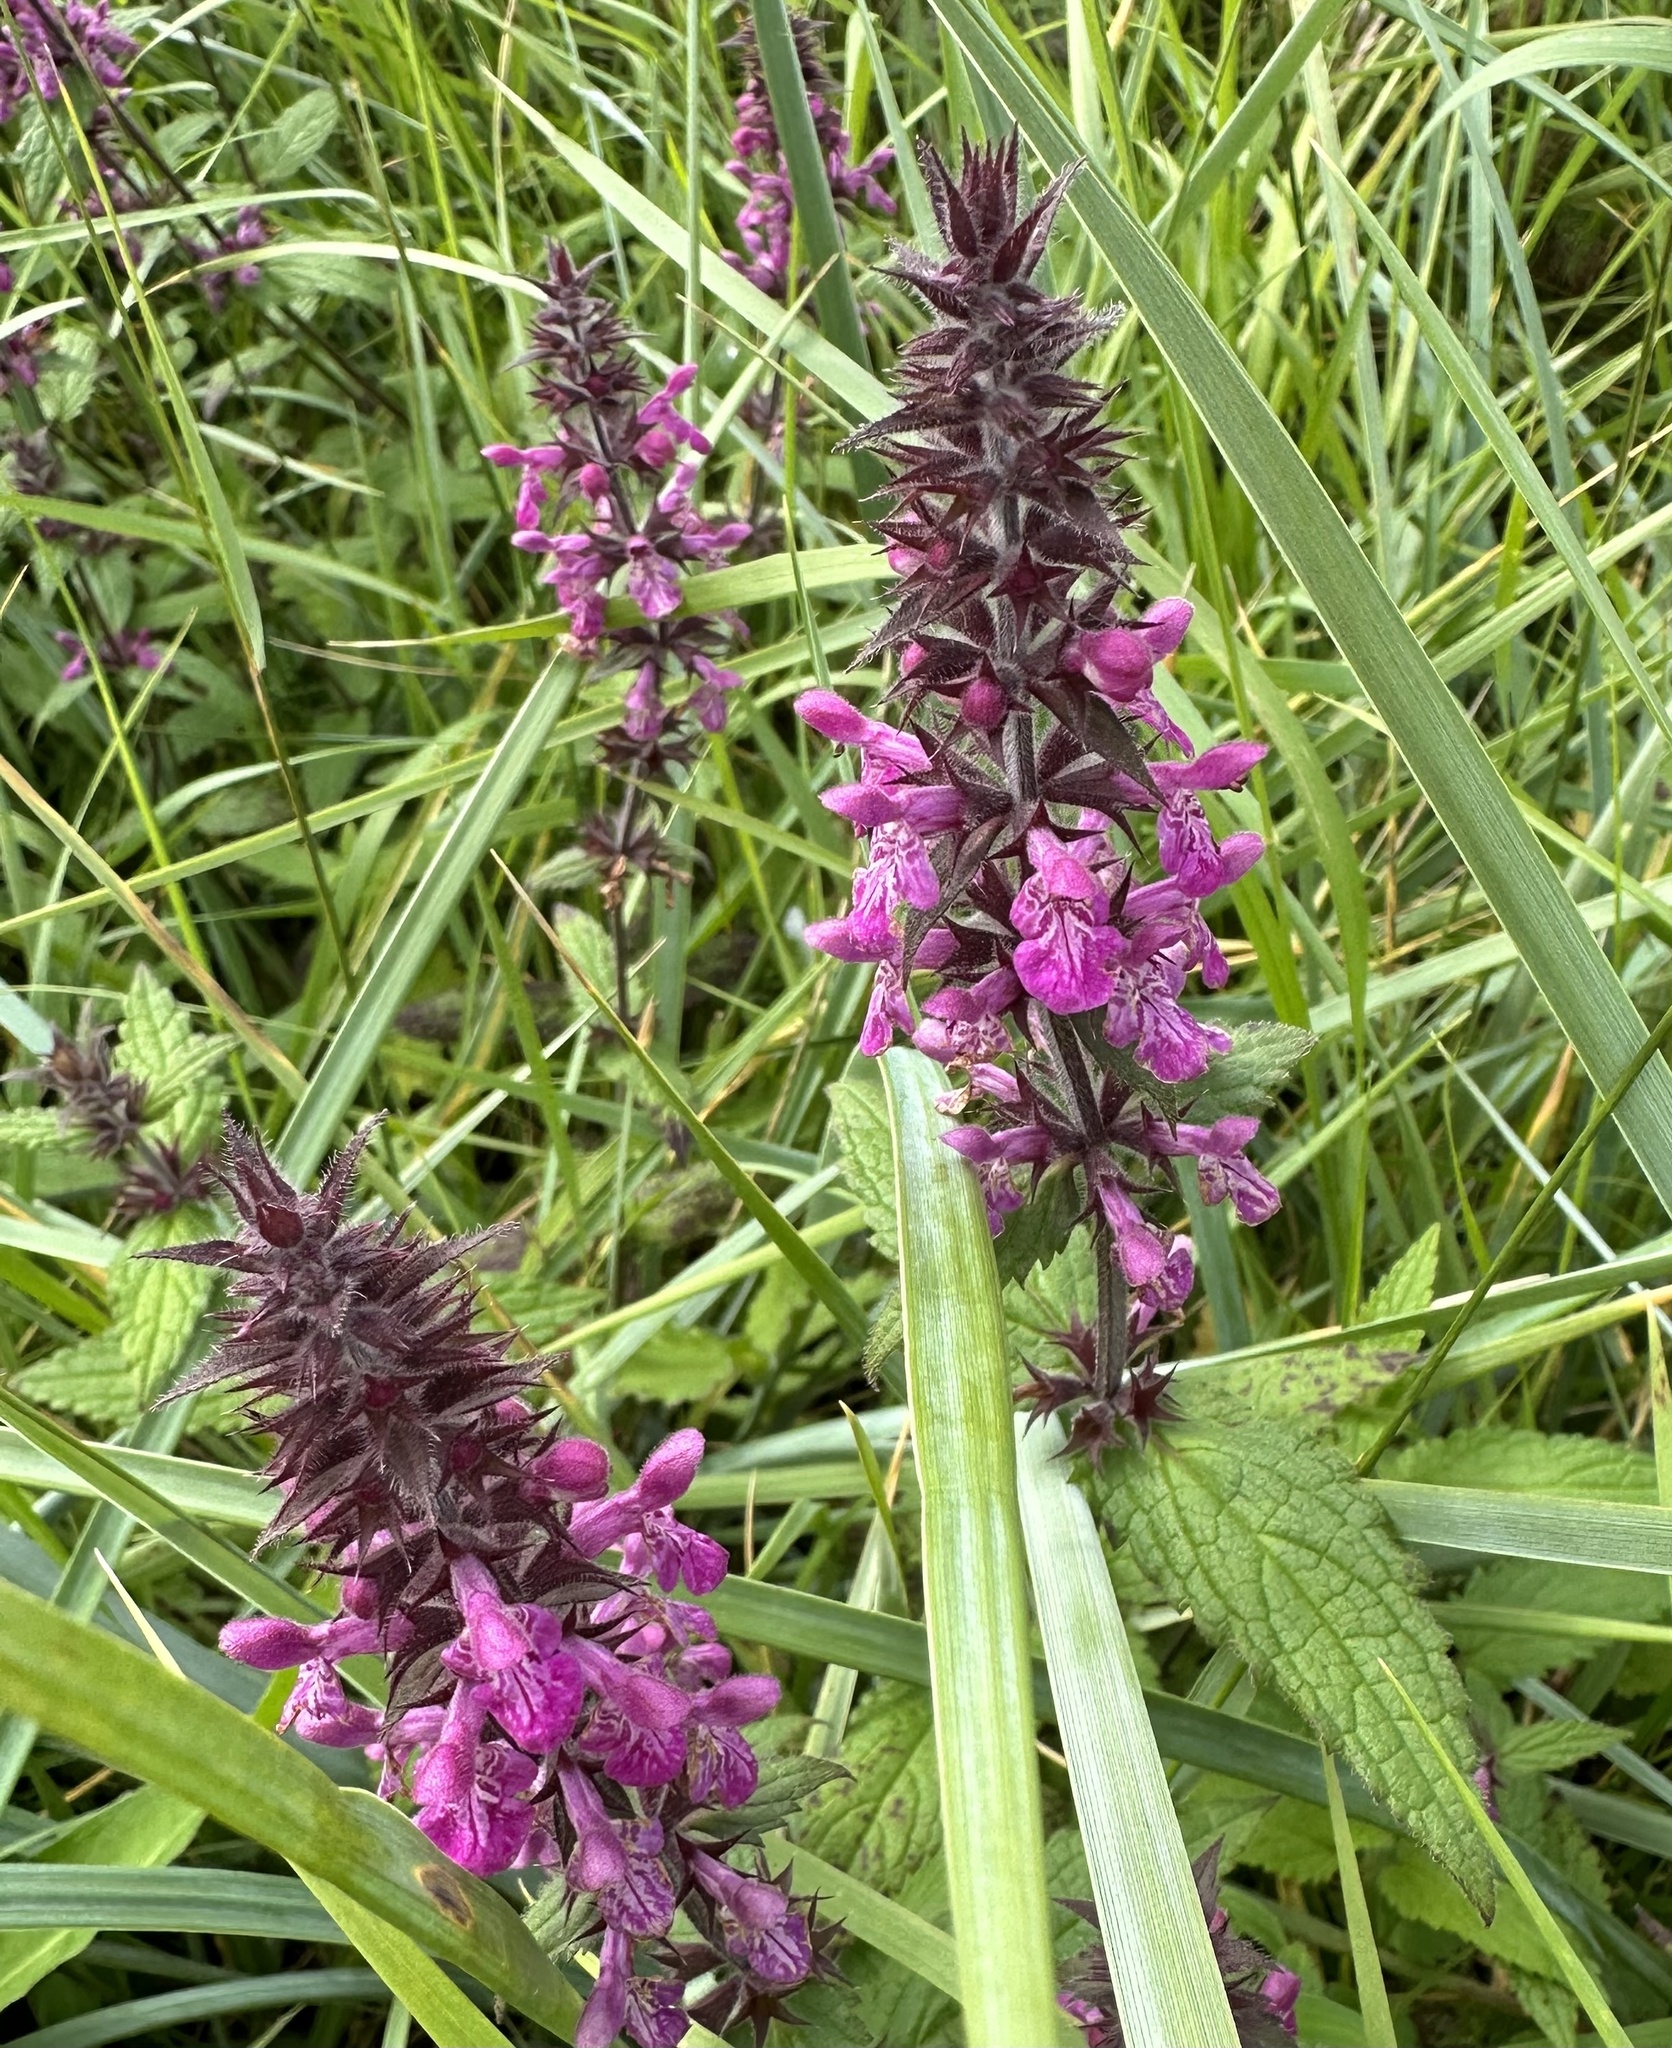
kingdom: Plantae
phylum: Tracheophyta
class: Magnoliopsida
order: Lamiales
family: Lamiaceae
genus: Stachys
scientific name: Stachys sylvatica
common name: Hedge woundwort
